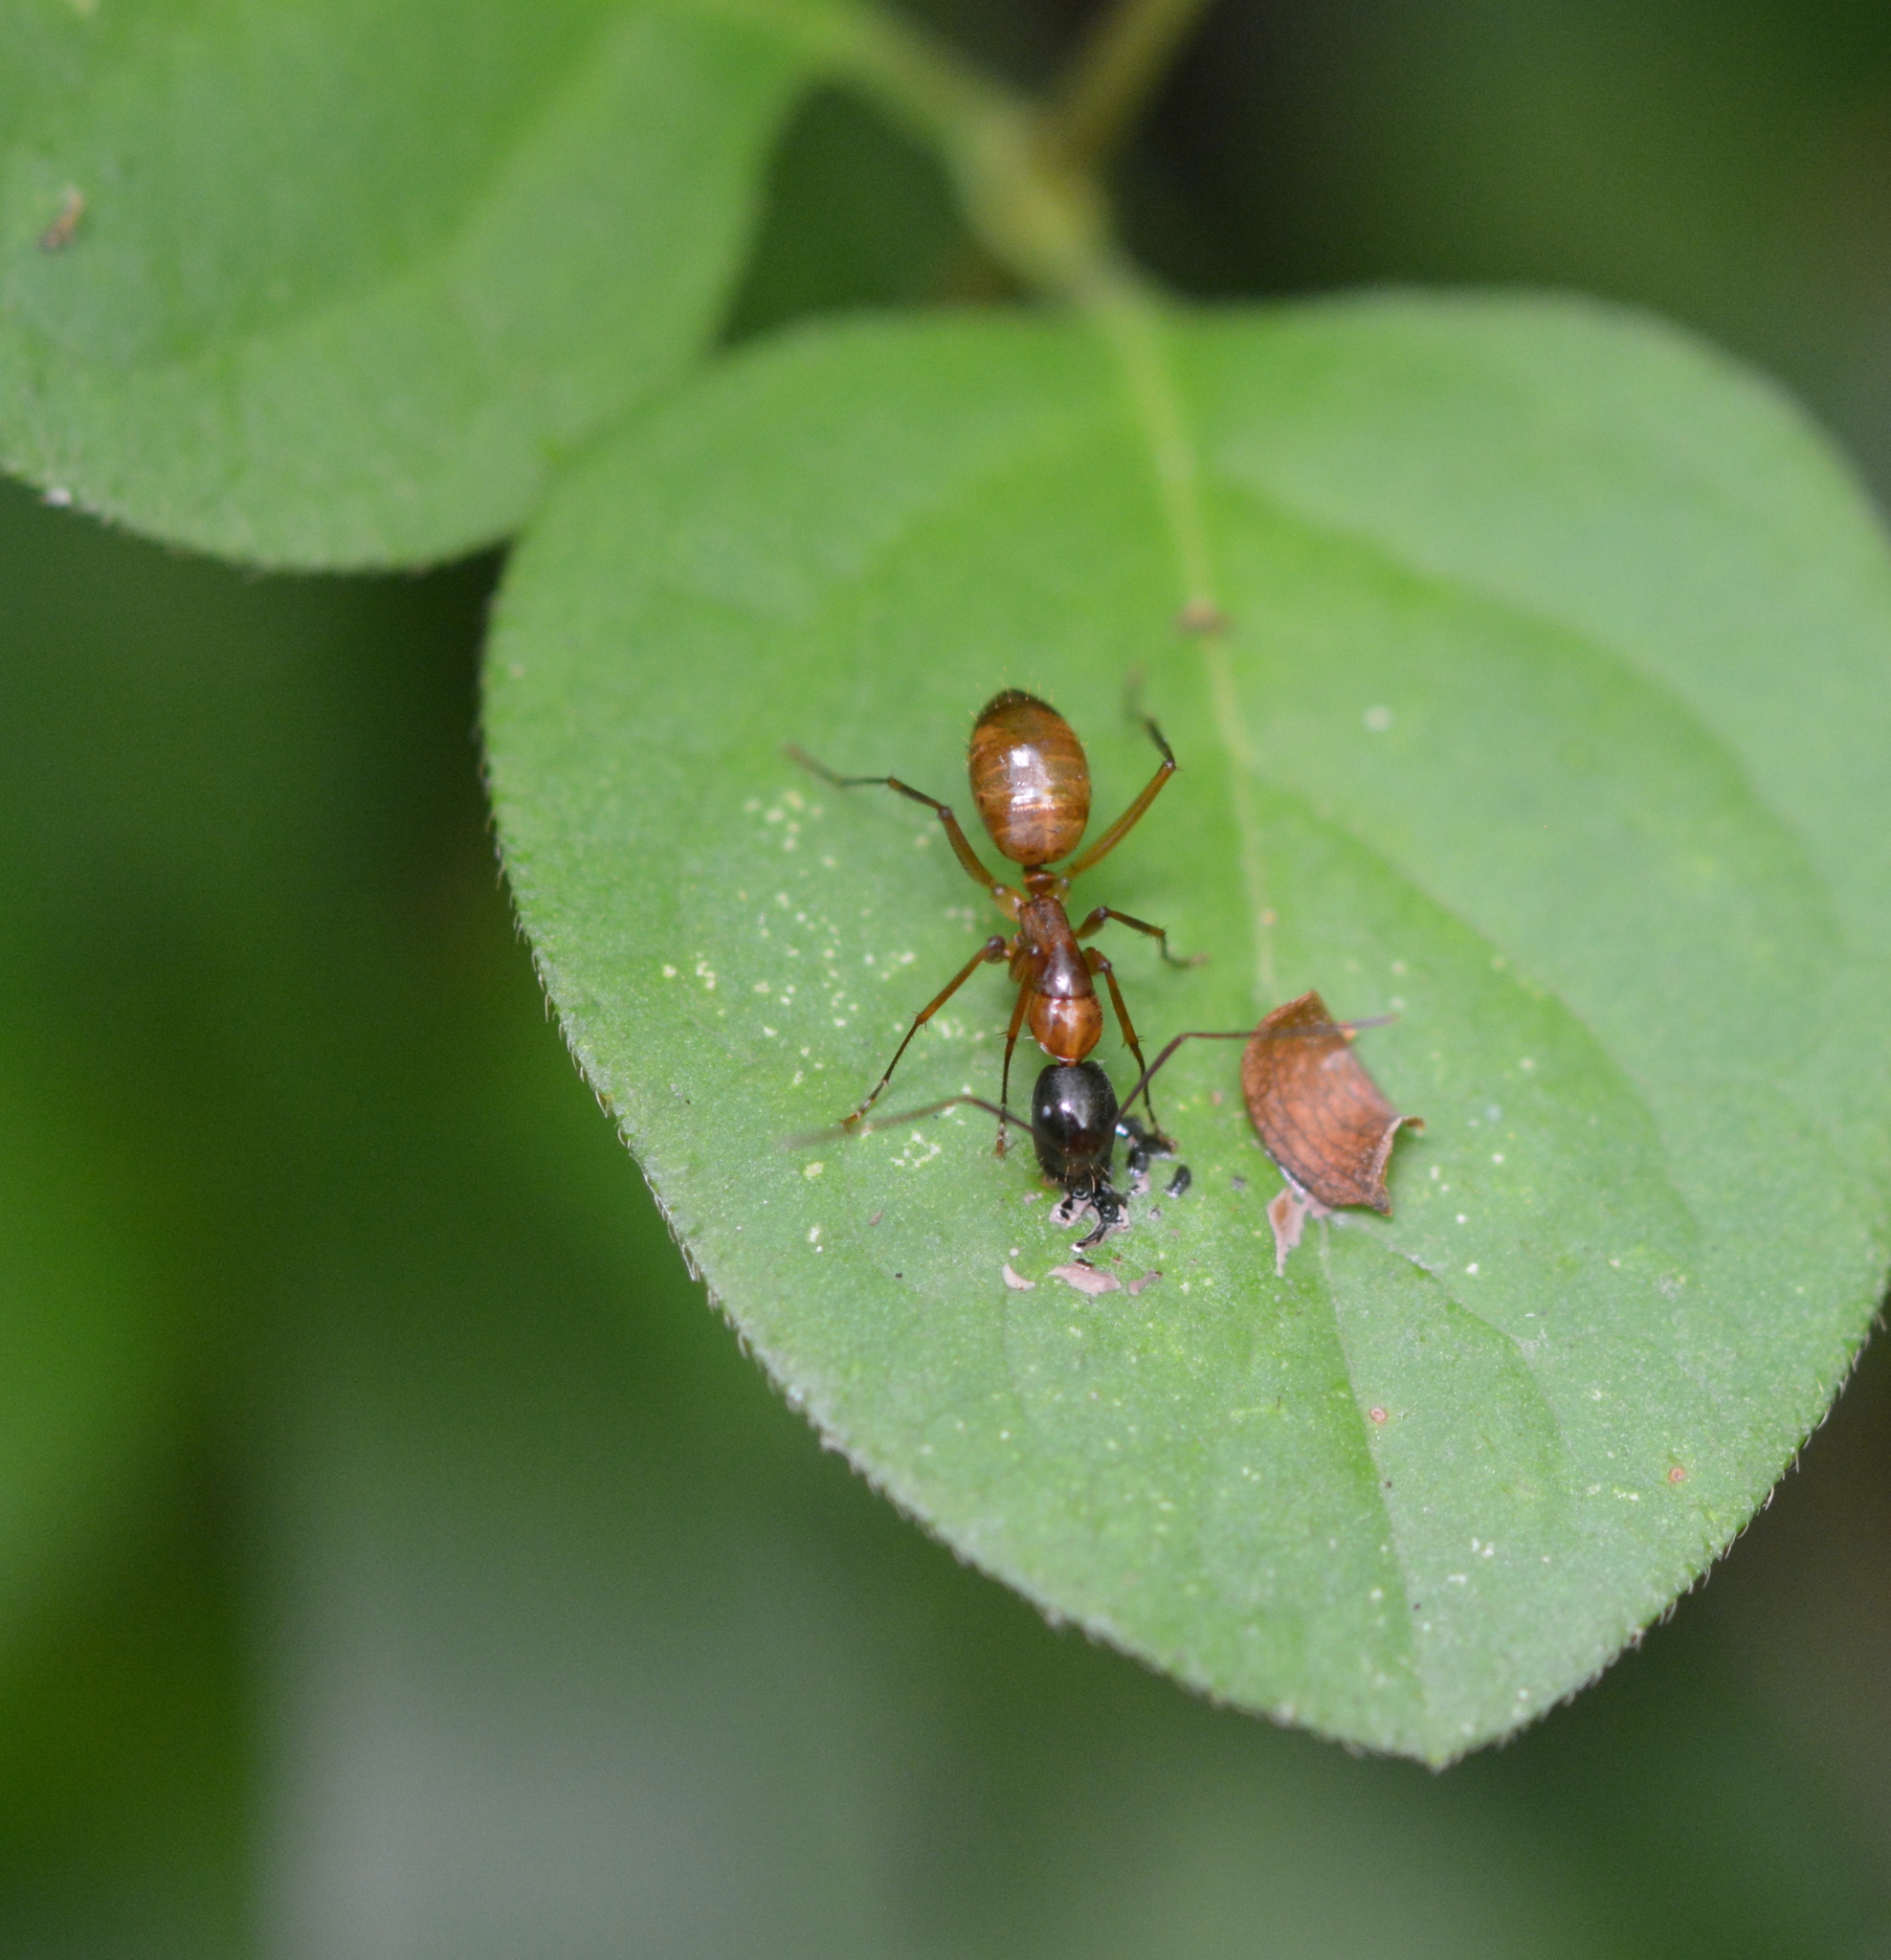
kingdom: Animalia
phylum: Arthropoda
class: Insecta
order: Hymenoptera
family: Formicidae
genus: Camponotus
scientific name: Camponotus americanus
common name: American carpenter ant
